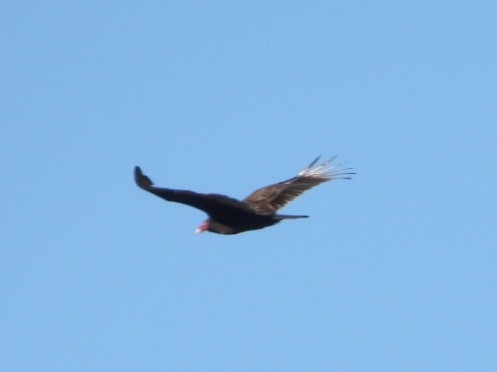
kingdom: Animalia
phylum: Chordata
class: Aves
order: Accipitriformes
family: Cathartidae
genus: Cathartes
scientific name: Cathartes aura
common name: Turkey vulture
